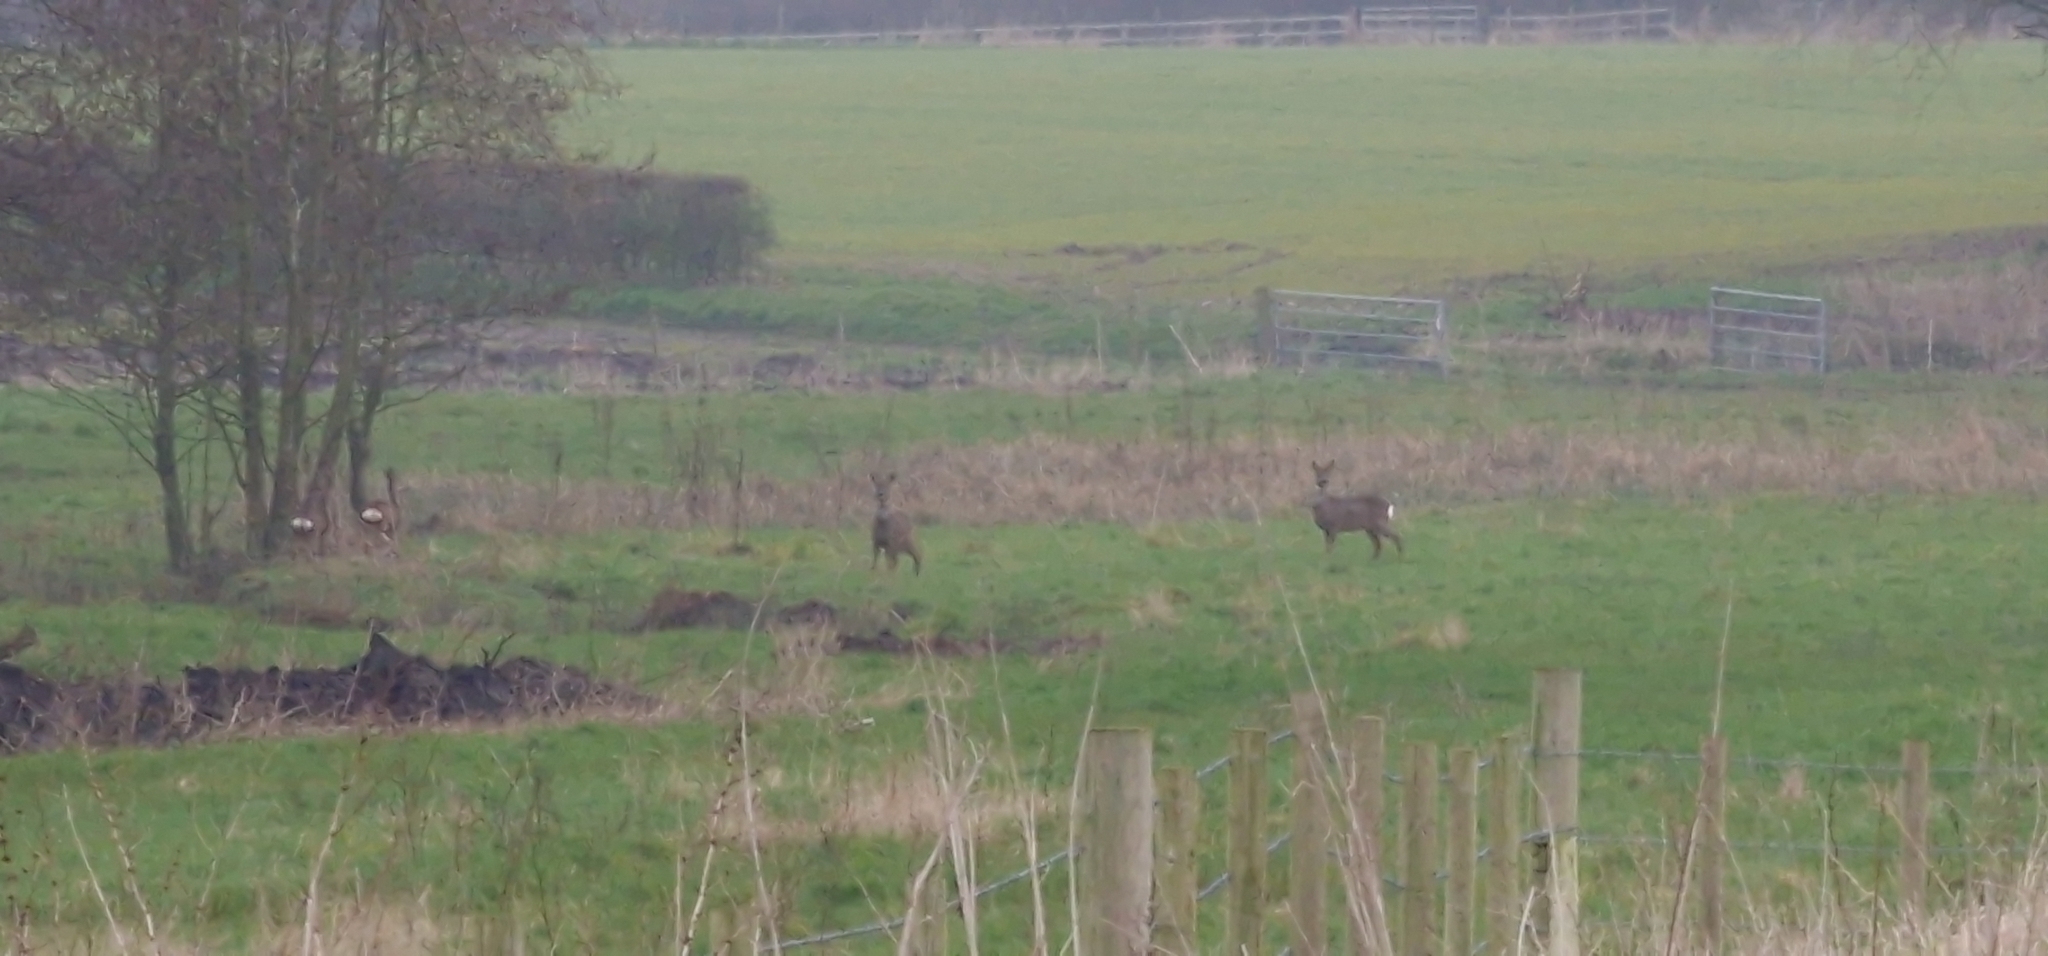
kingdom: Animalia
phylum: Chordata
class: Mammalia
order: Artiodactyla
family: Cervidae
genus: Capreolus
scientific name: Capreolus capreolus
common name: Western roe deer
